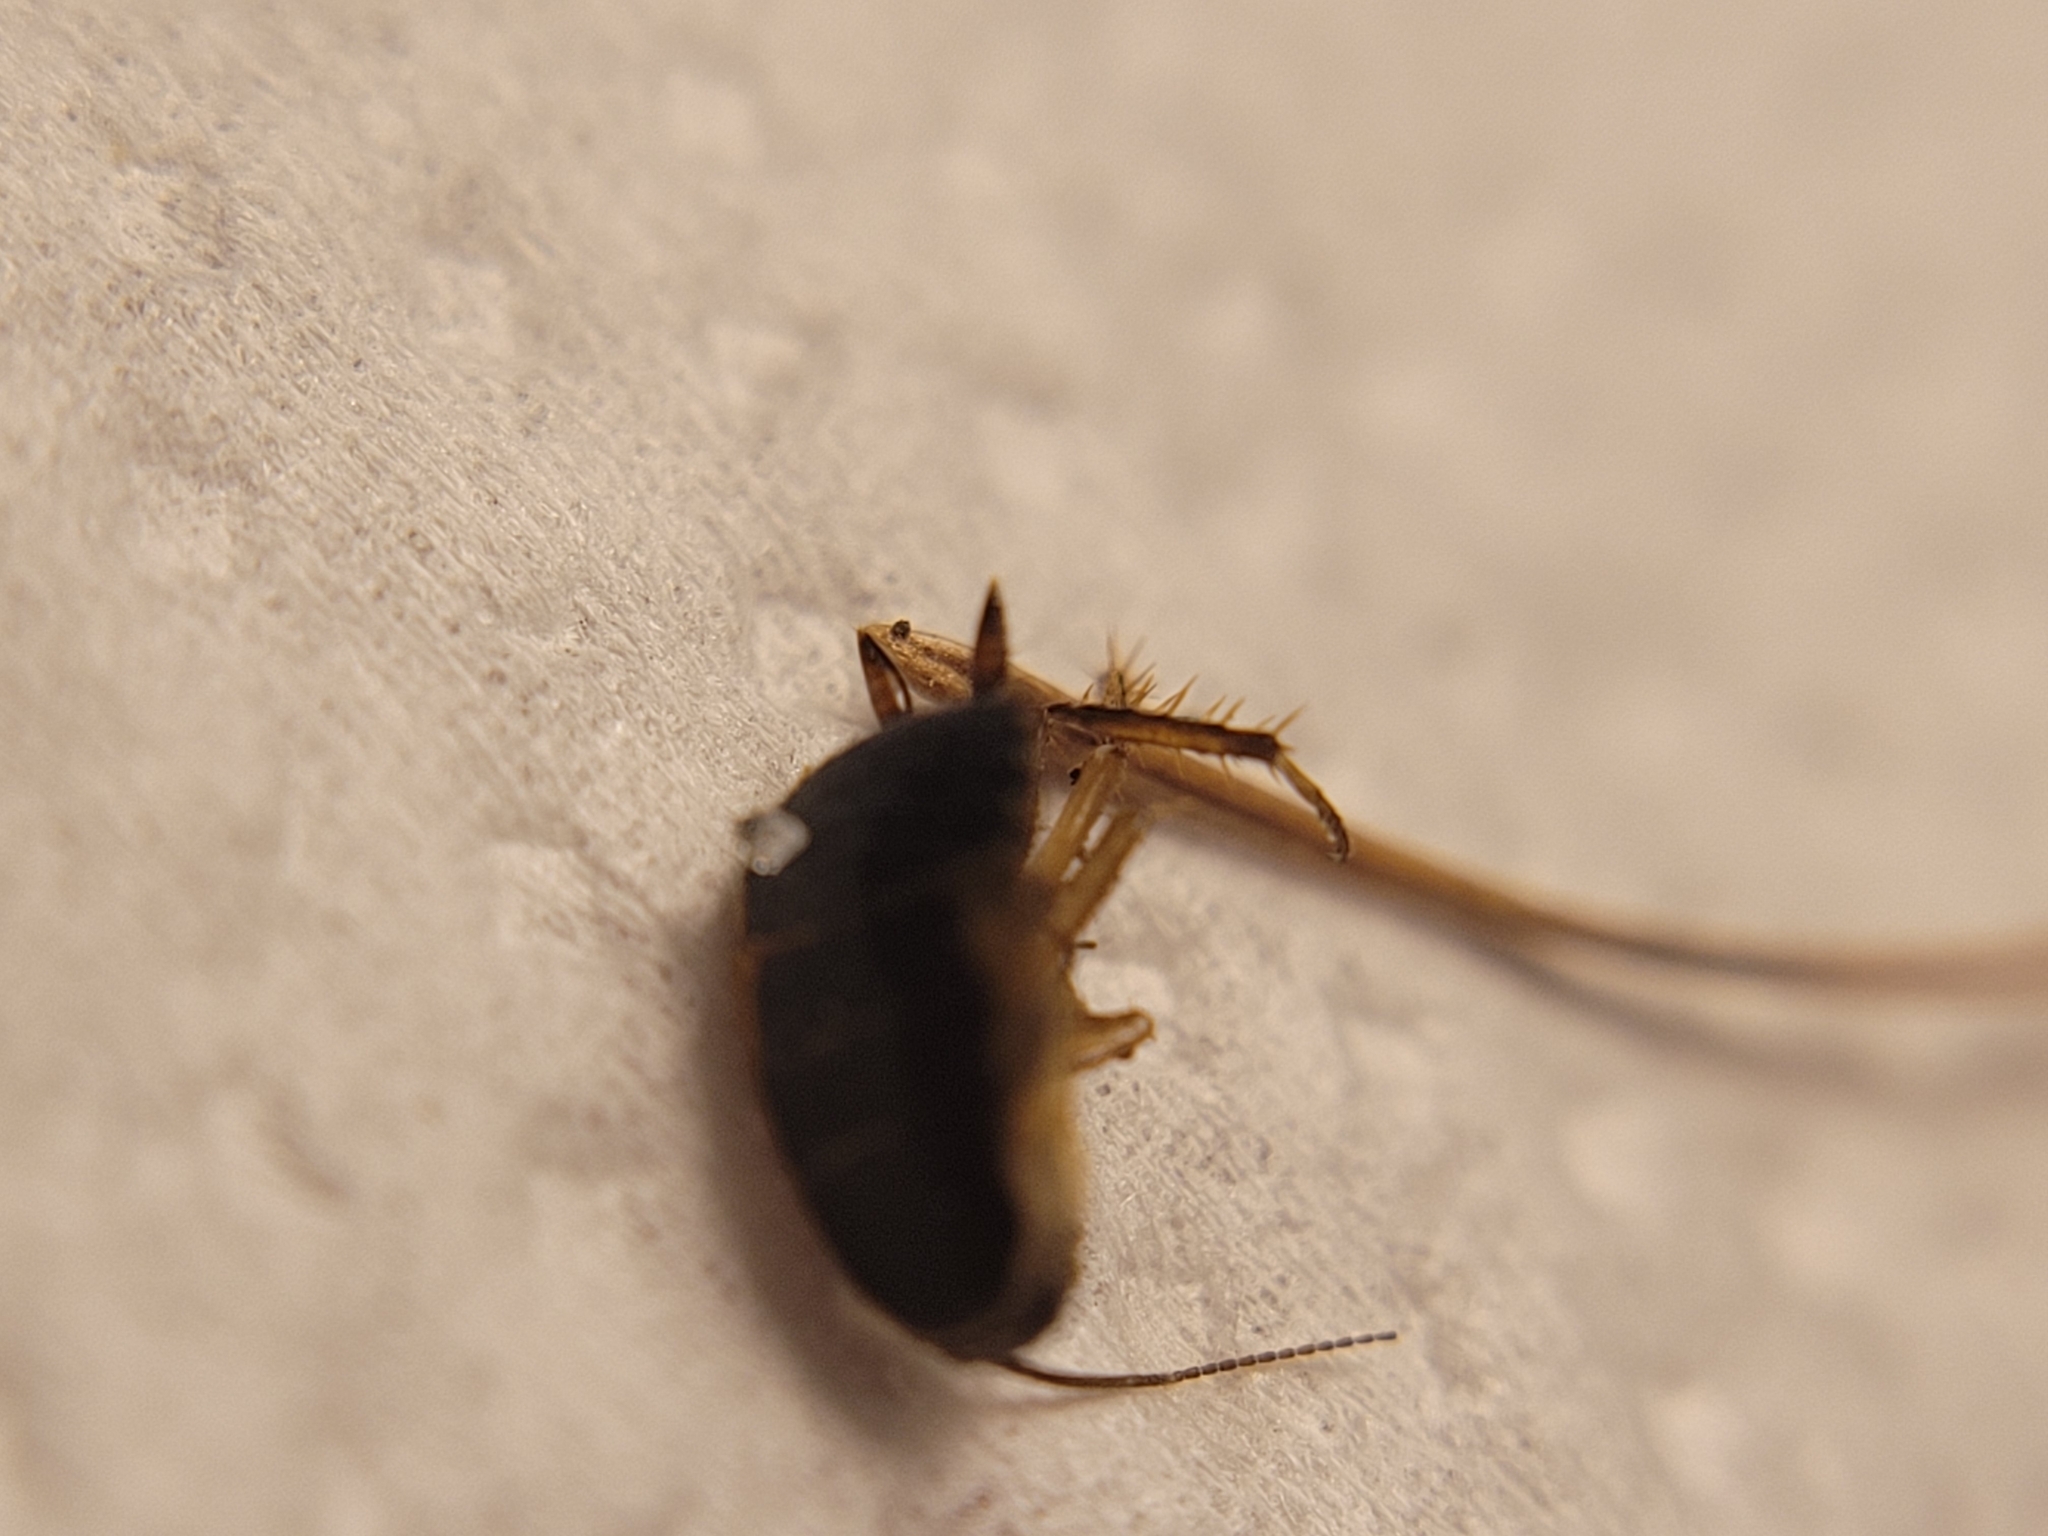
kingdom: Animalia
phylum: Arthropoda
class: Insecta
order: Blattodea
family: Ectobiidae
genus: Ectobius
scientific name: Ectobius sylvestris
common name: Forest cockroach
